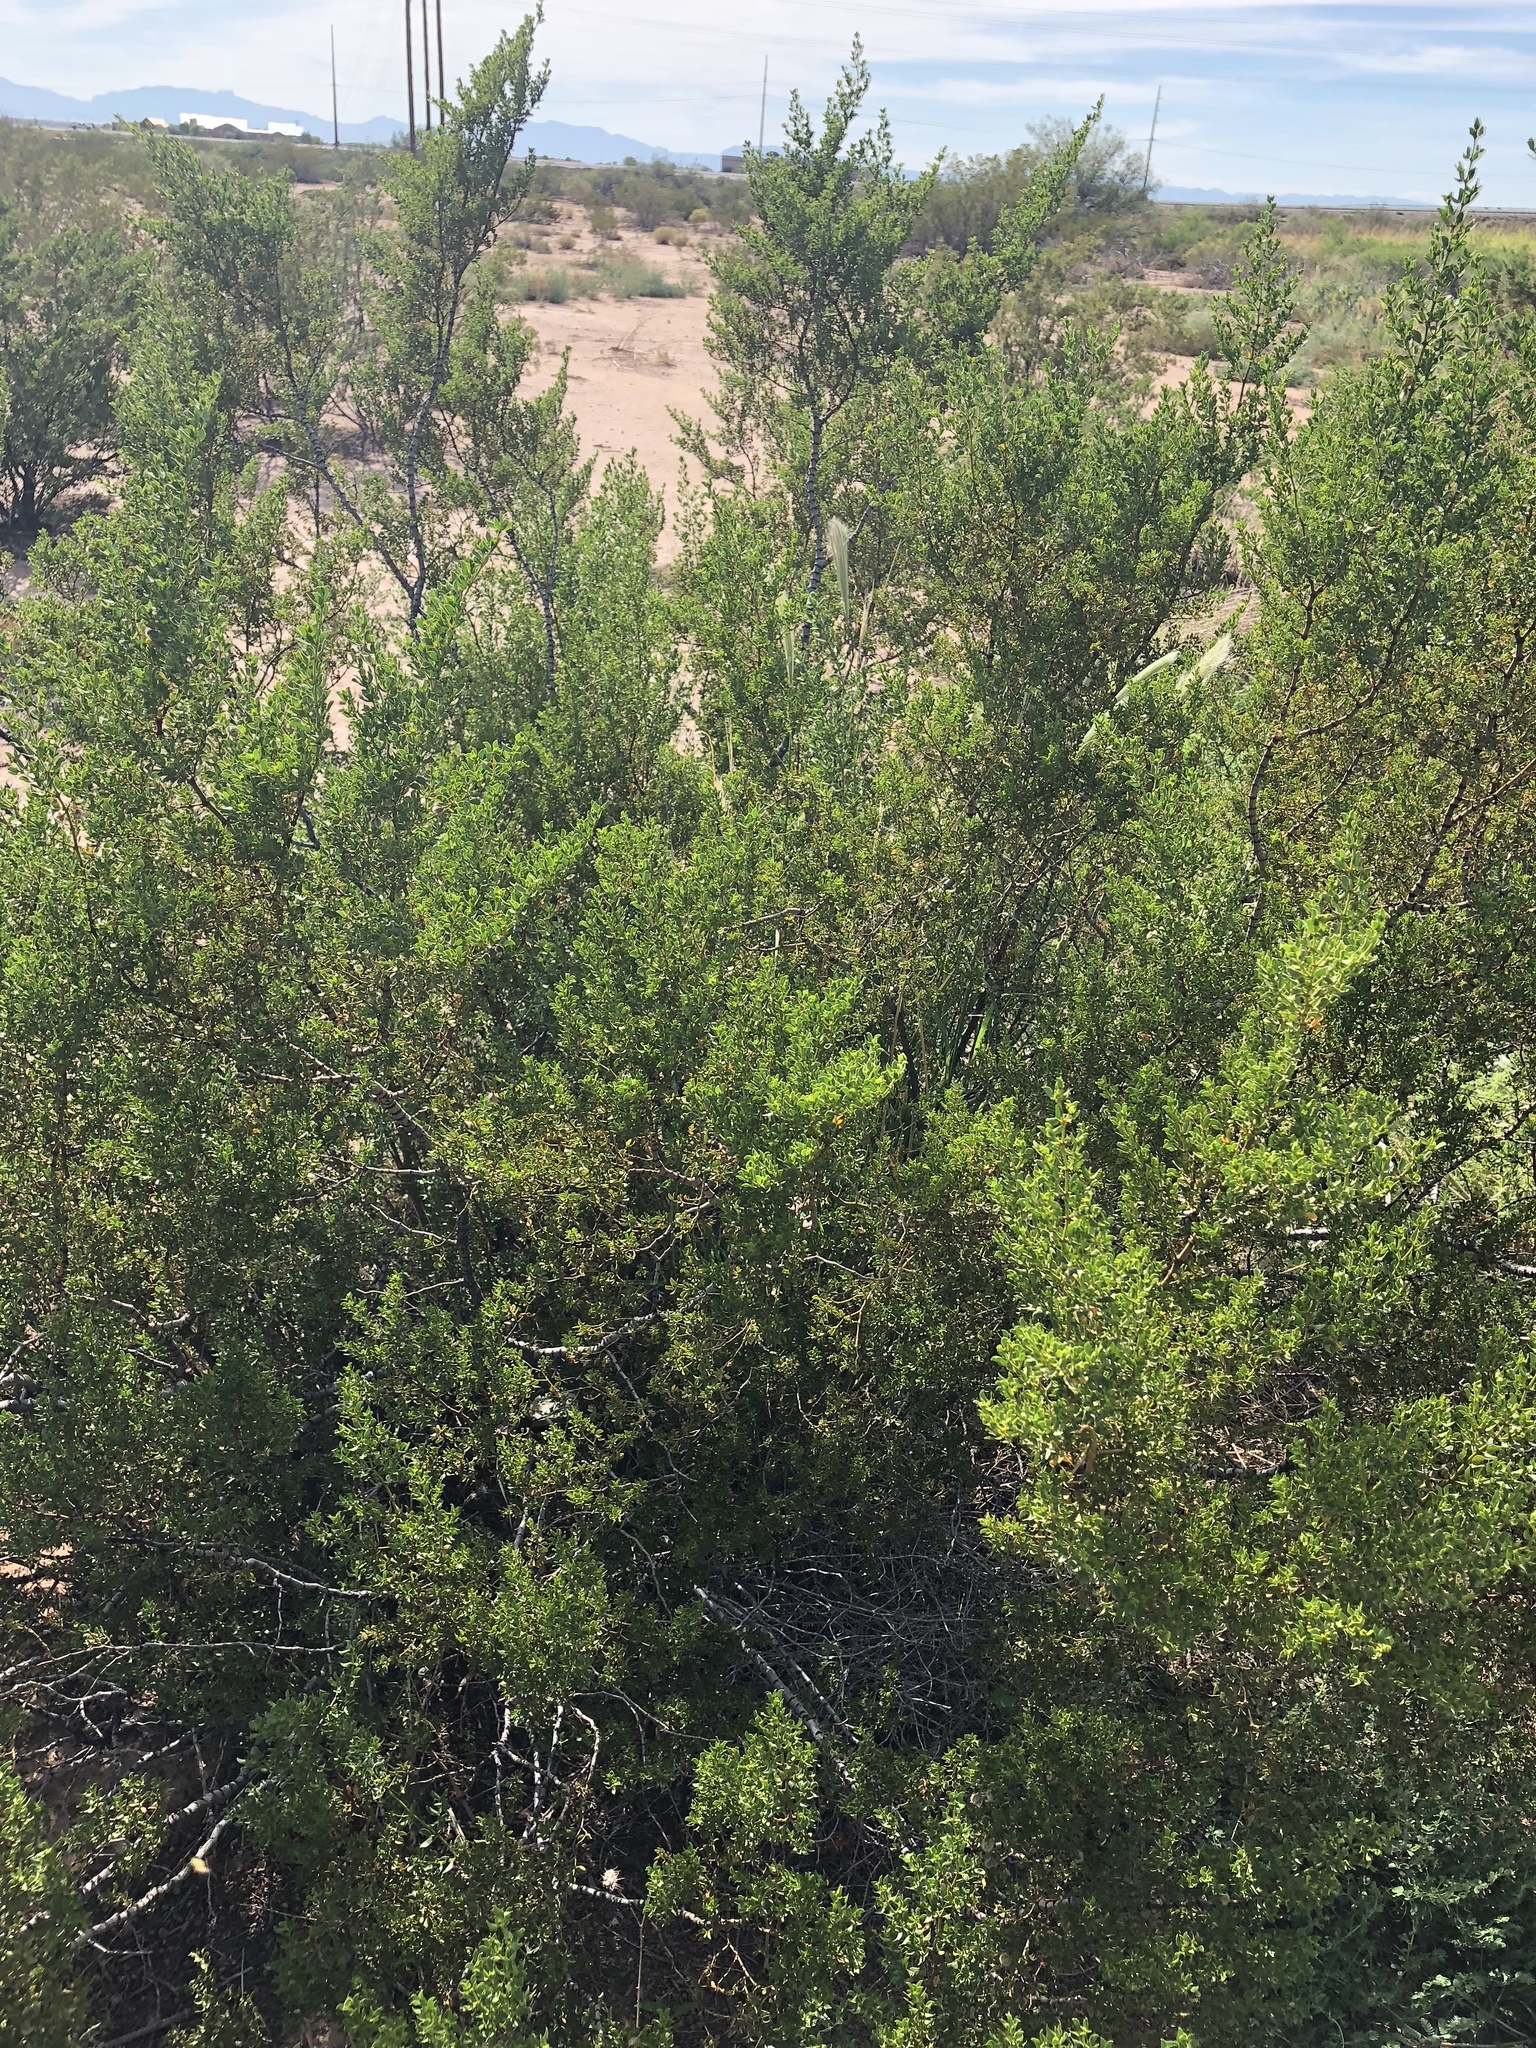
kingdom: Plantae
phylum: Tracheophyta
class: Magnoliopsida
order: Zygophyllales
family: Zygophyllaceae
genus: Larrea
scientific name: Larrea tridentata
